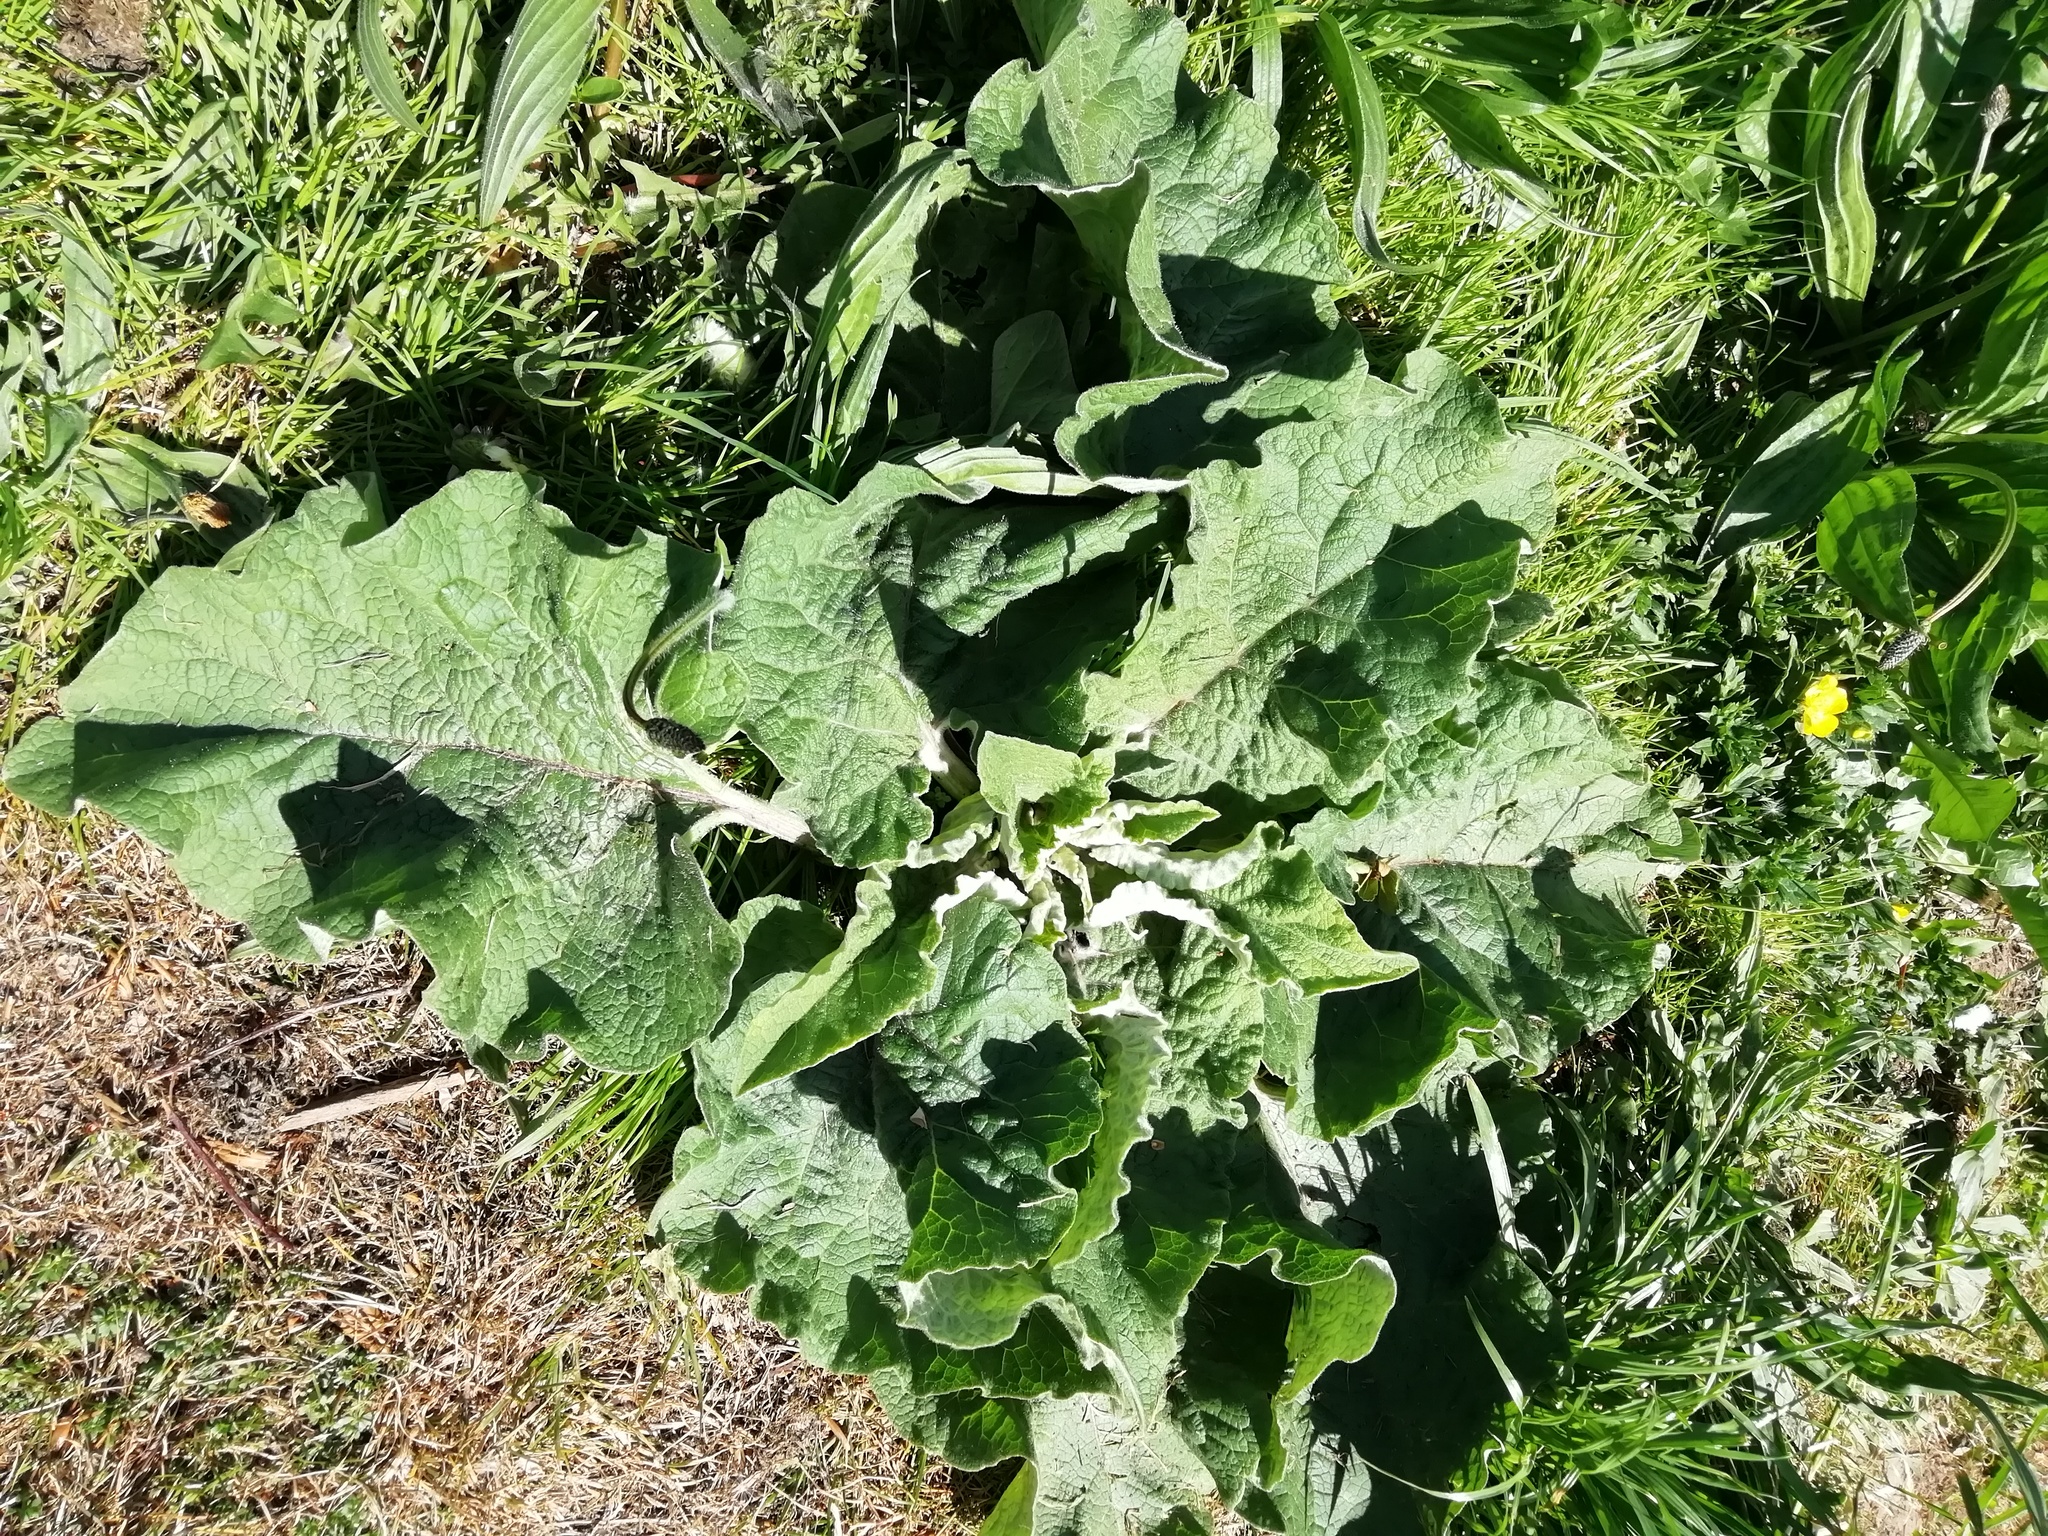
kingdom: Plantae
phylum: Tracheophyta
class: Magnoliopsida
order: Asterales
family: Asteraceae
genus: Arctium
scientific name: Arctium minus
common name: Lesser burdock
